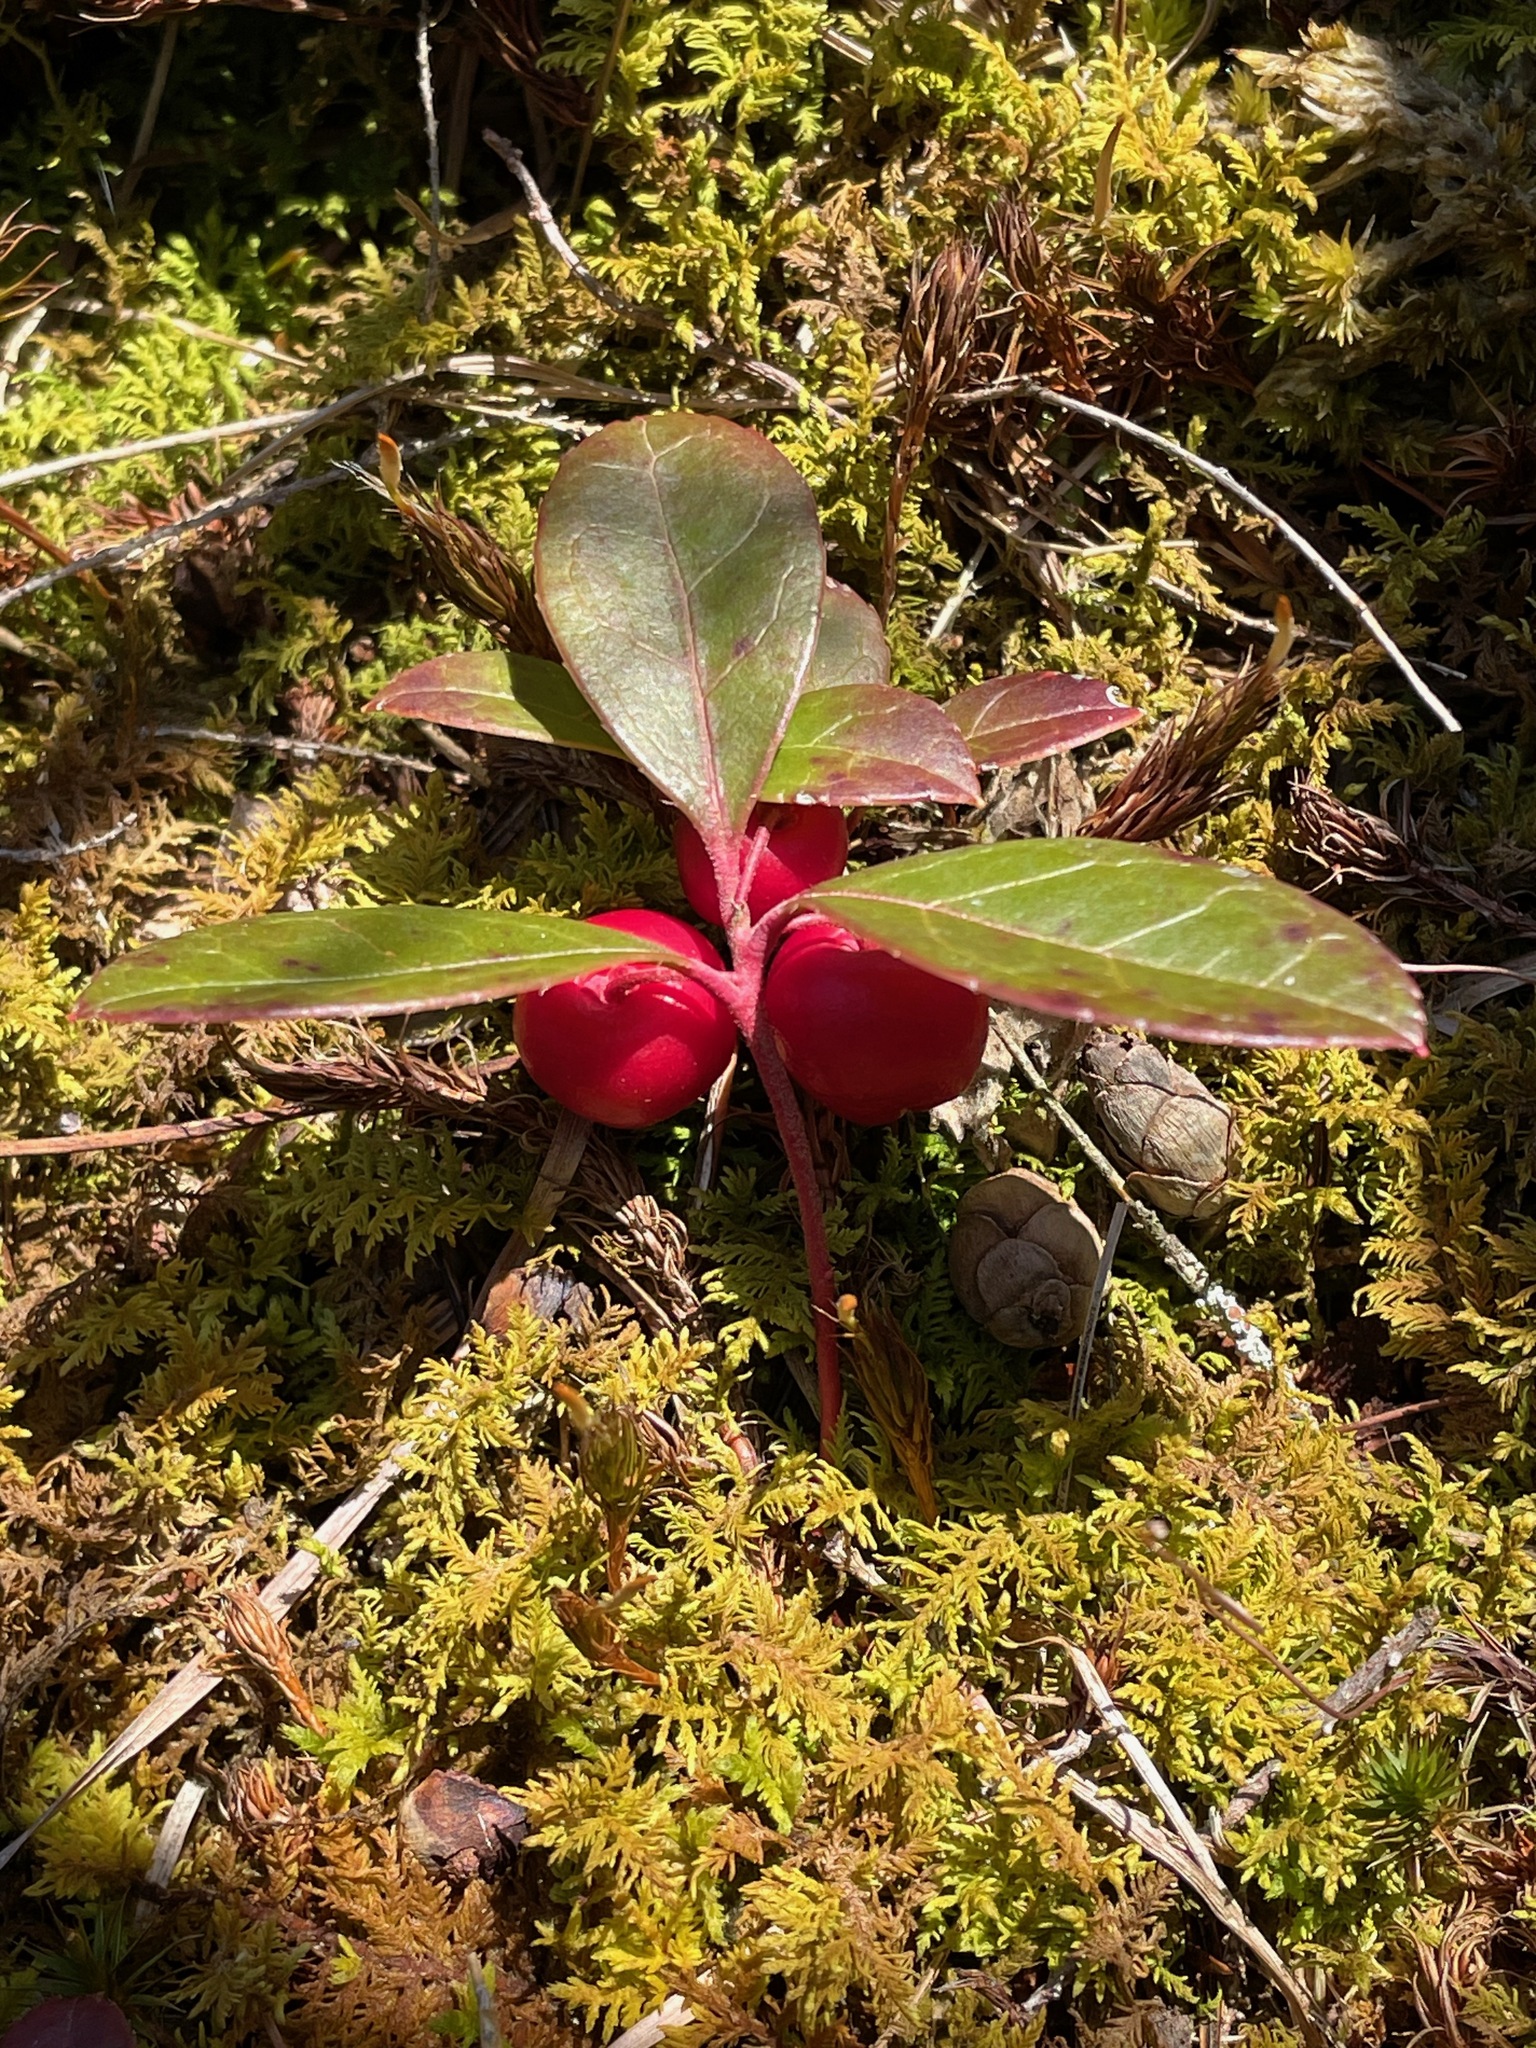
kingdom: Plantae
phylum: Tracheophyta
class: Magnoliopsida
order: Ericales
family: Ericaceae
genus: Gaultheria
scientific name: Gaultheria procumbens
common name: Checkerberry
